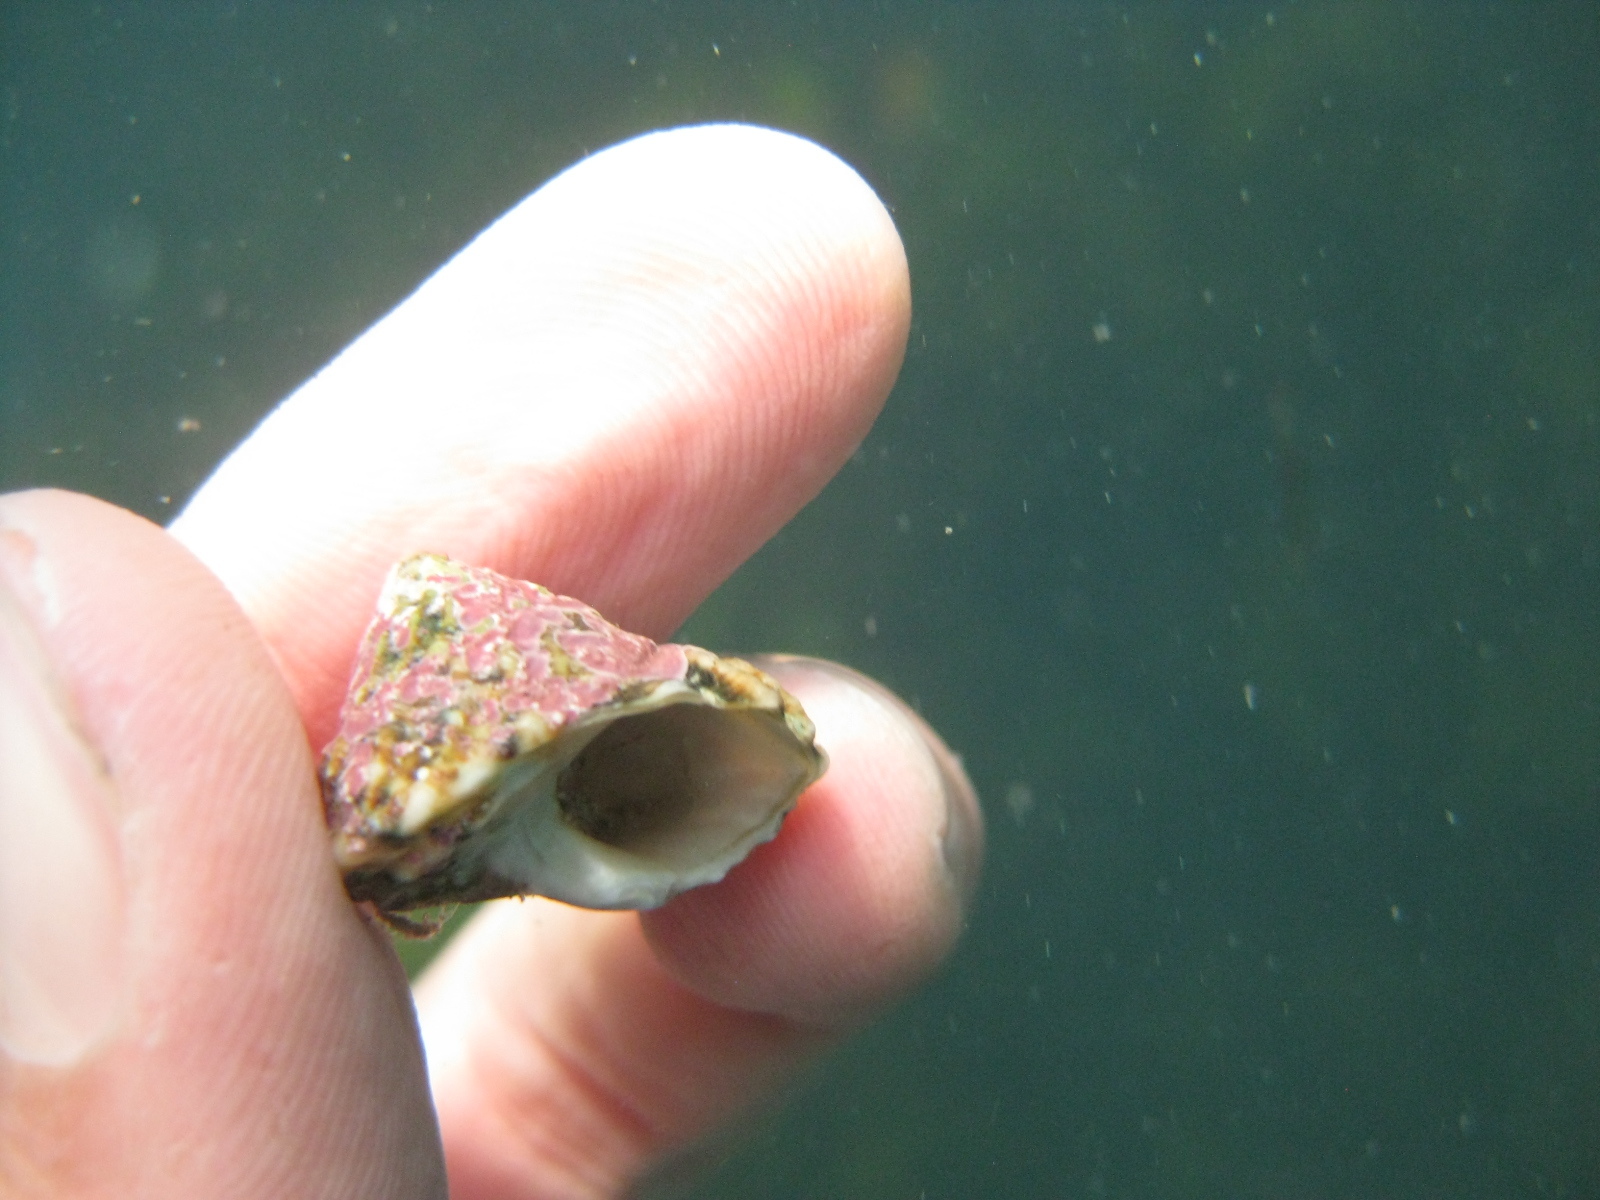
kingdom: Animalia
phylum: Mollusca
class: Gastropoda
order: Trochida
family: Turbinidae
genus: Cookia
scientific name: Cookia sulcata
